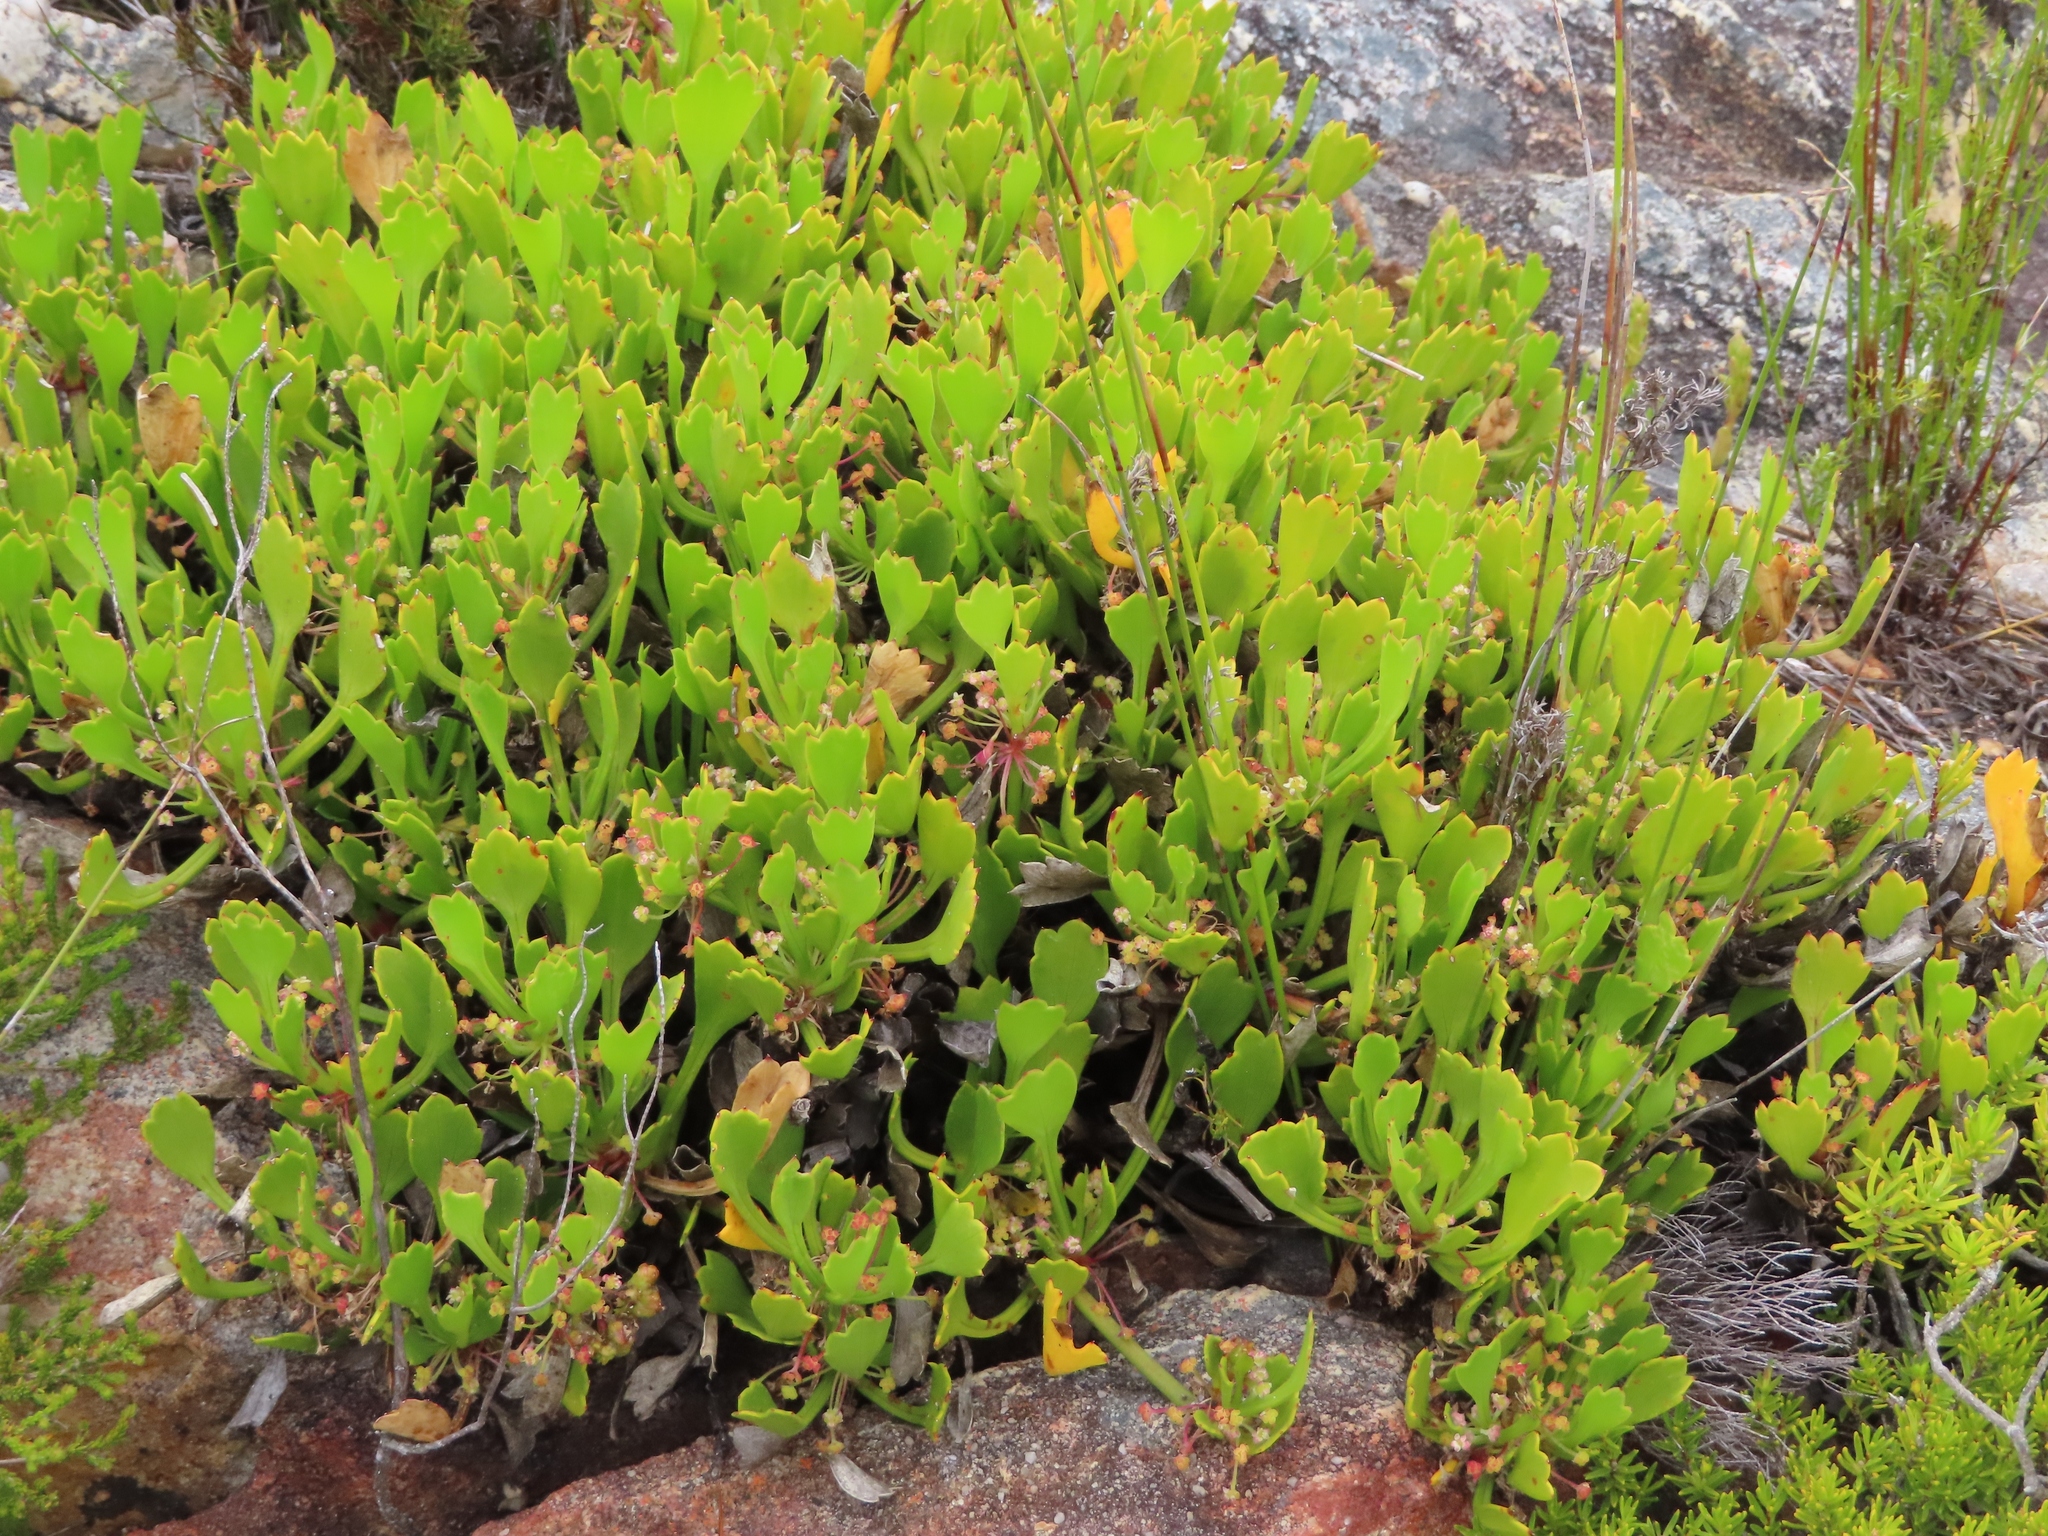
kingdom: Plantae
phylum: Tracheophyta
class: Magnoliopsida
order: Apiales
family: Apiaceae
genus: Centella
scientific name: Centella triloba
